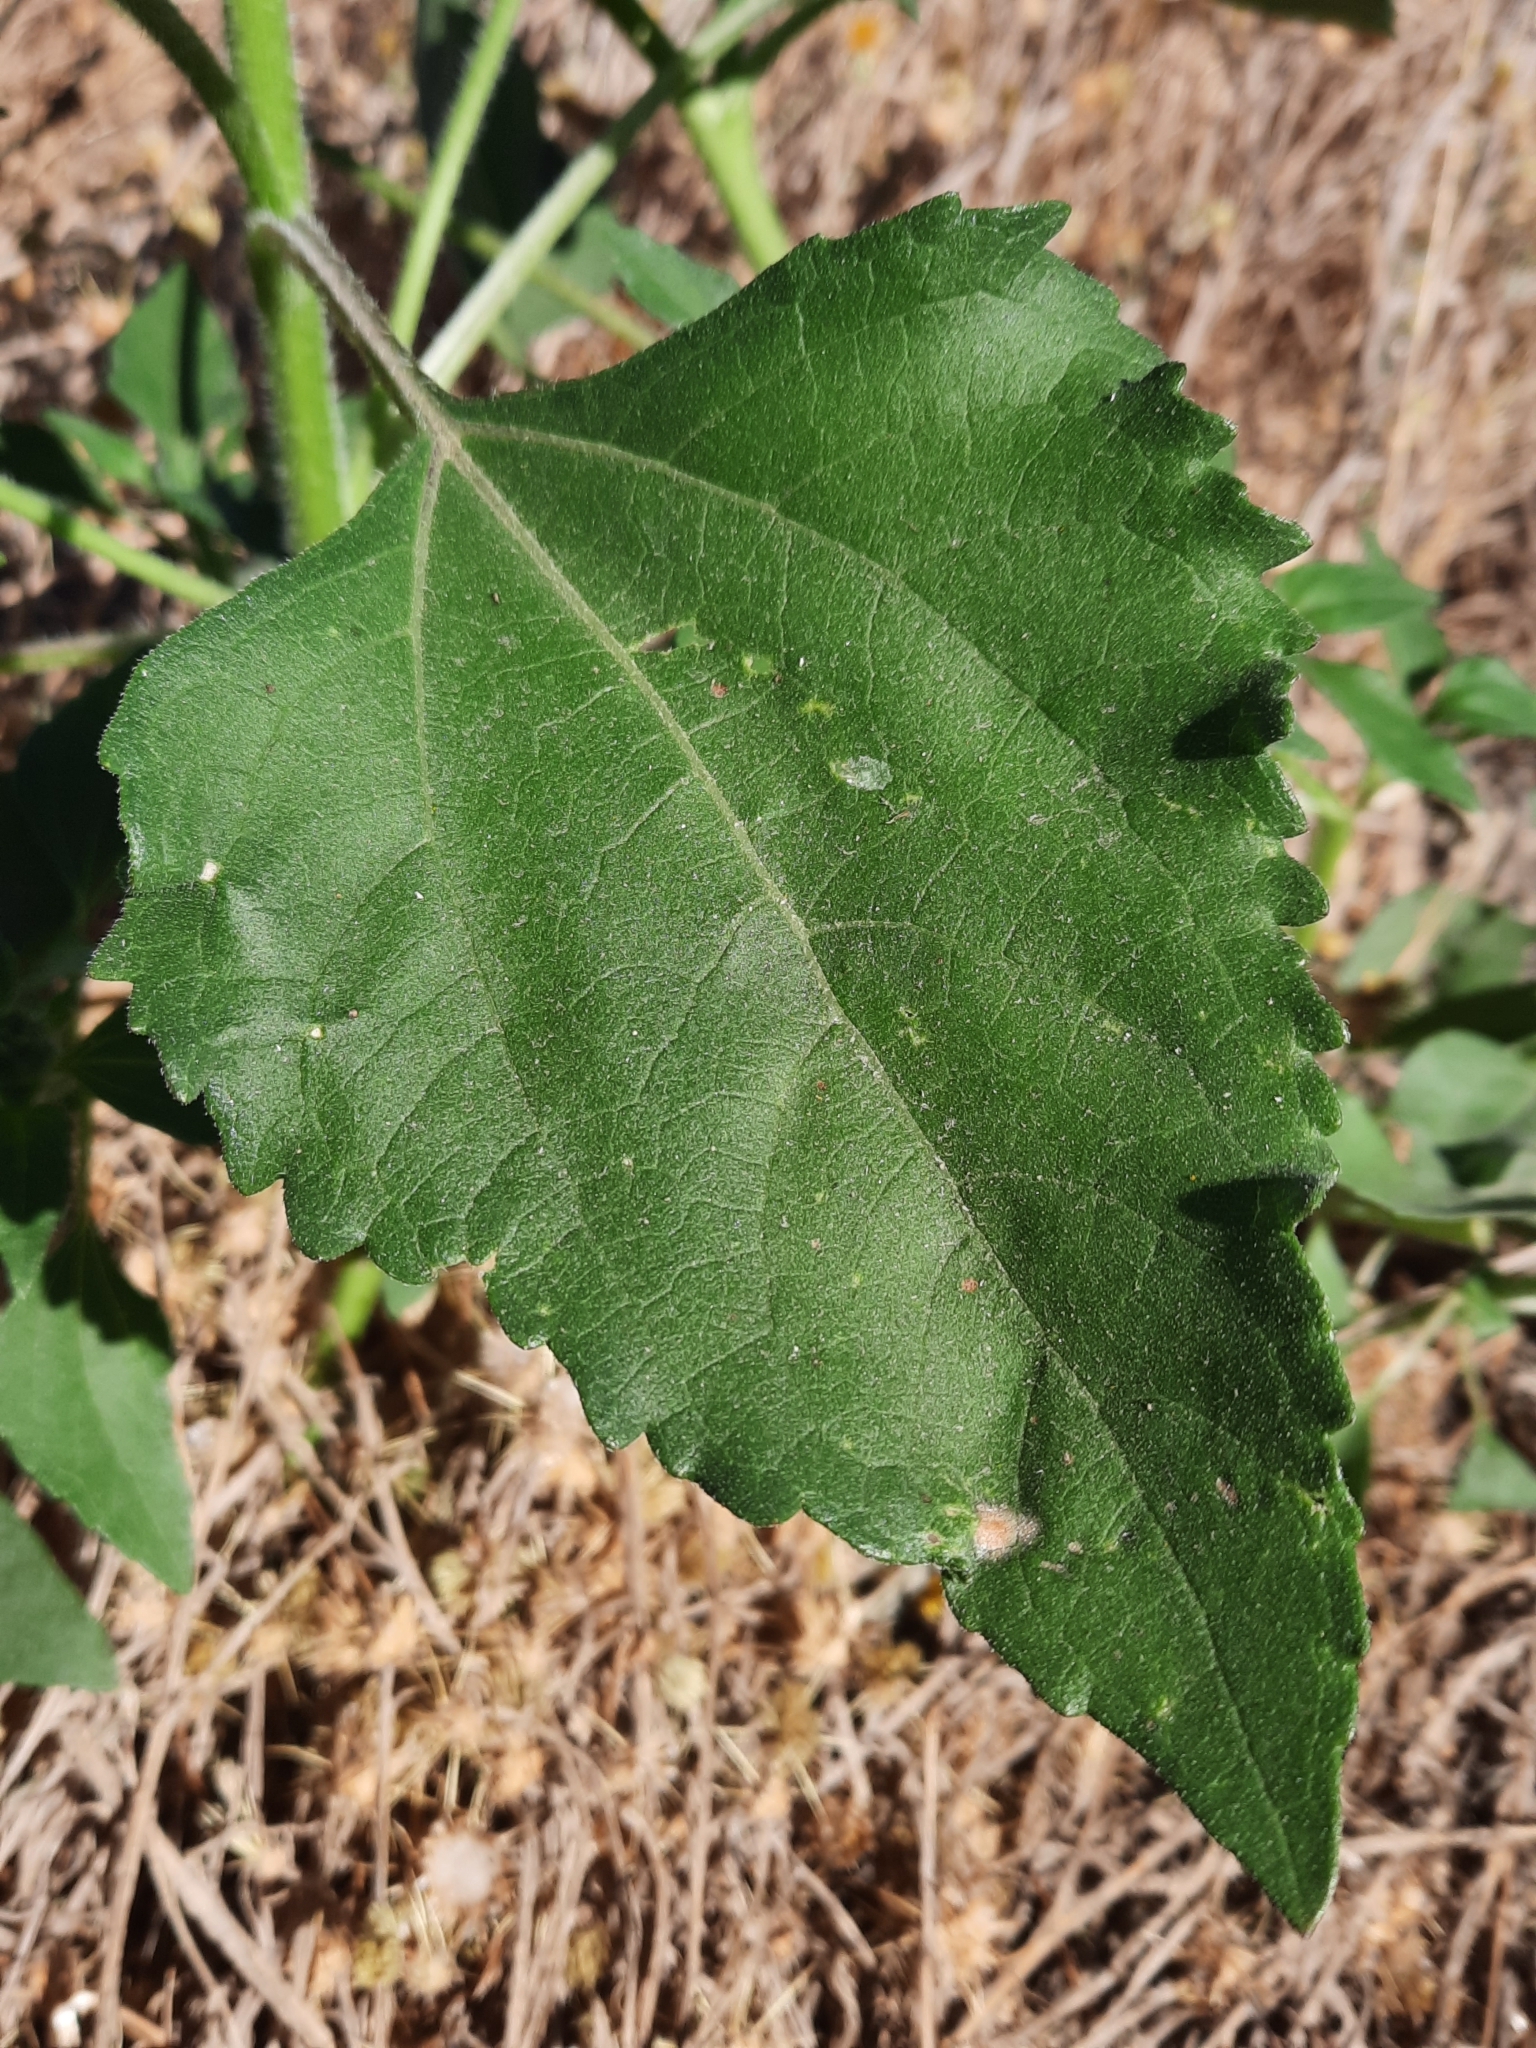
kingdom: Plantae
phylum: Tracheophyta
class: Magnoliopsida
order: Asterales
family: Asteraceae
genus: Helianthus
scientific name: Helianthus annuus
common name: Sunflower
